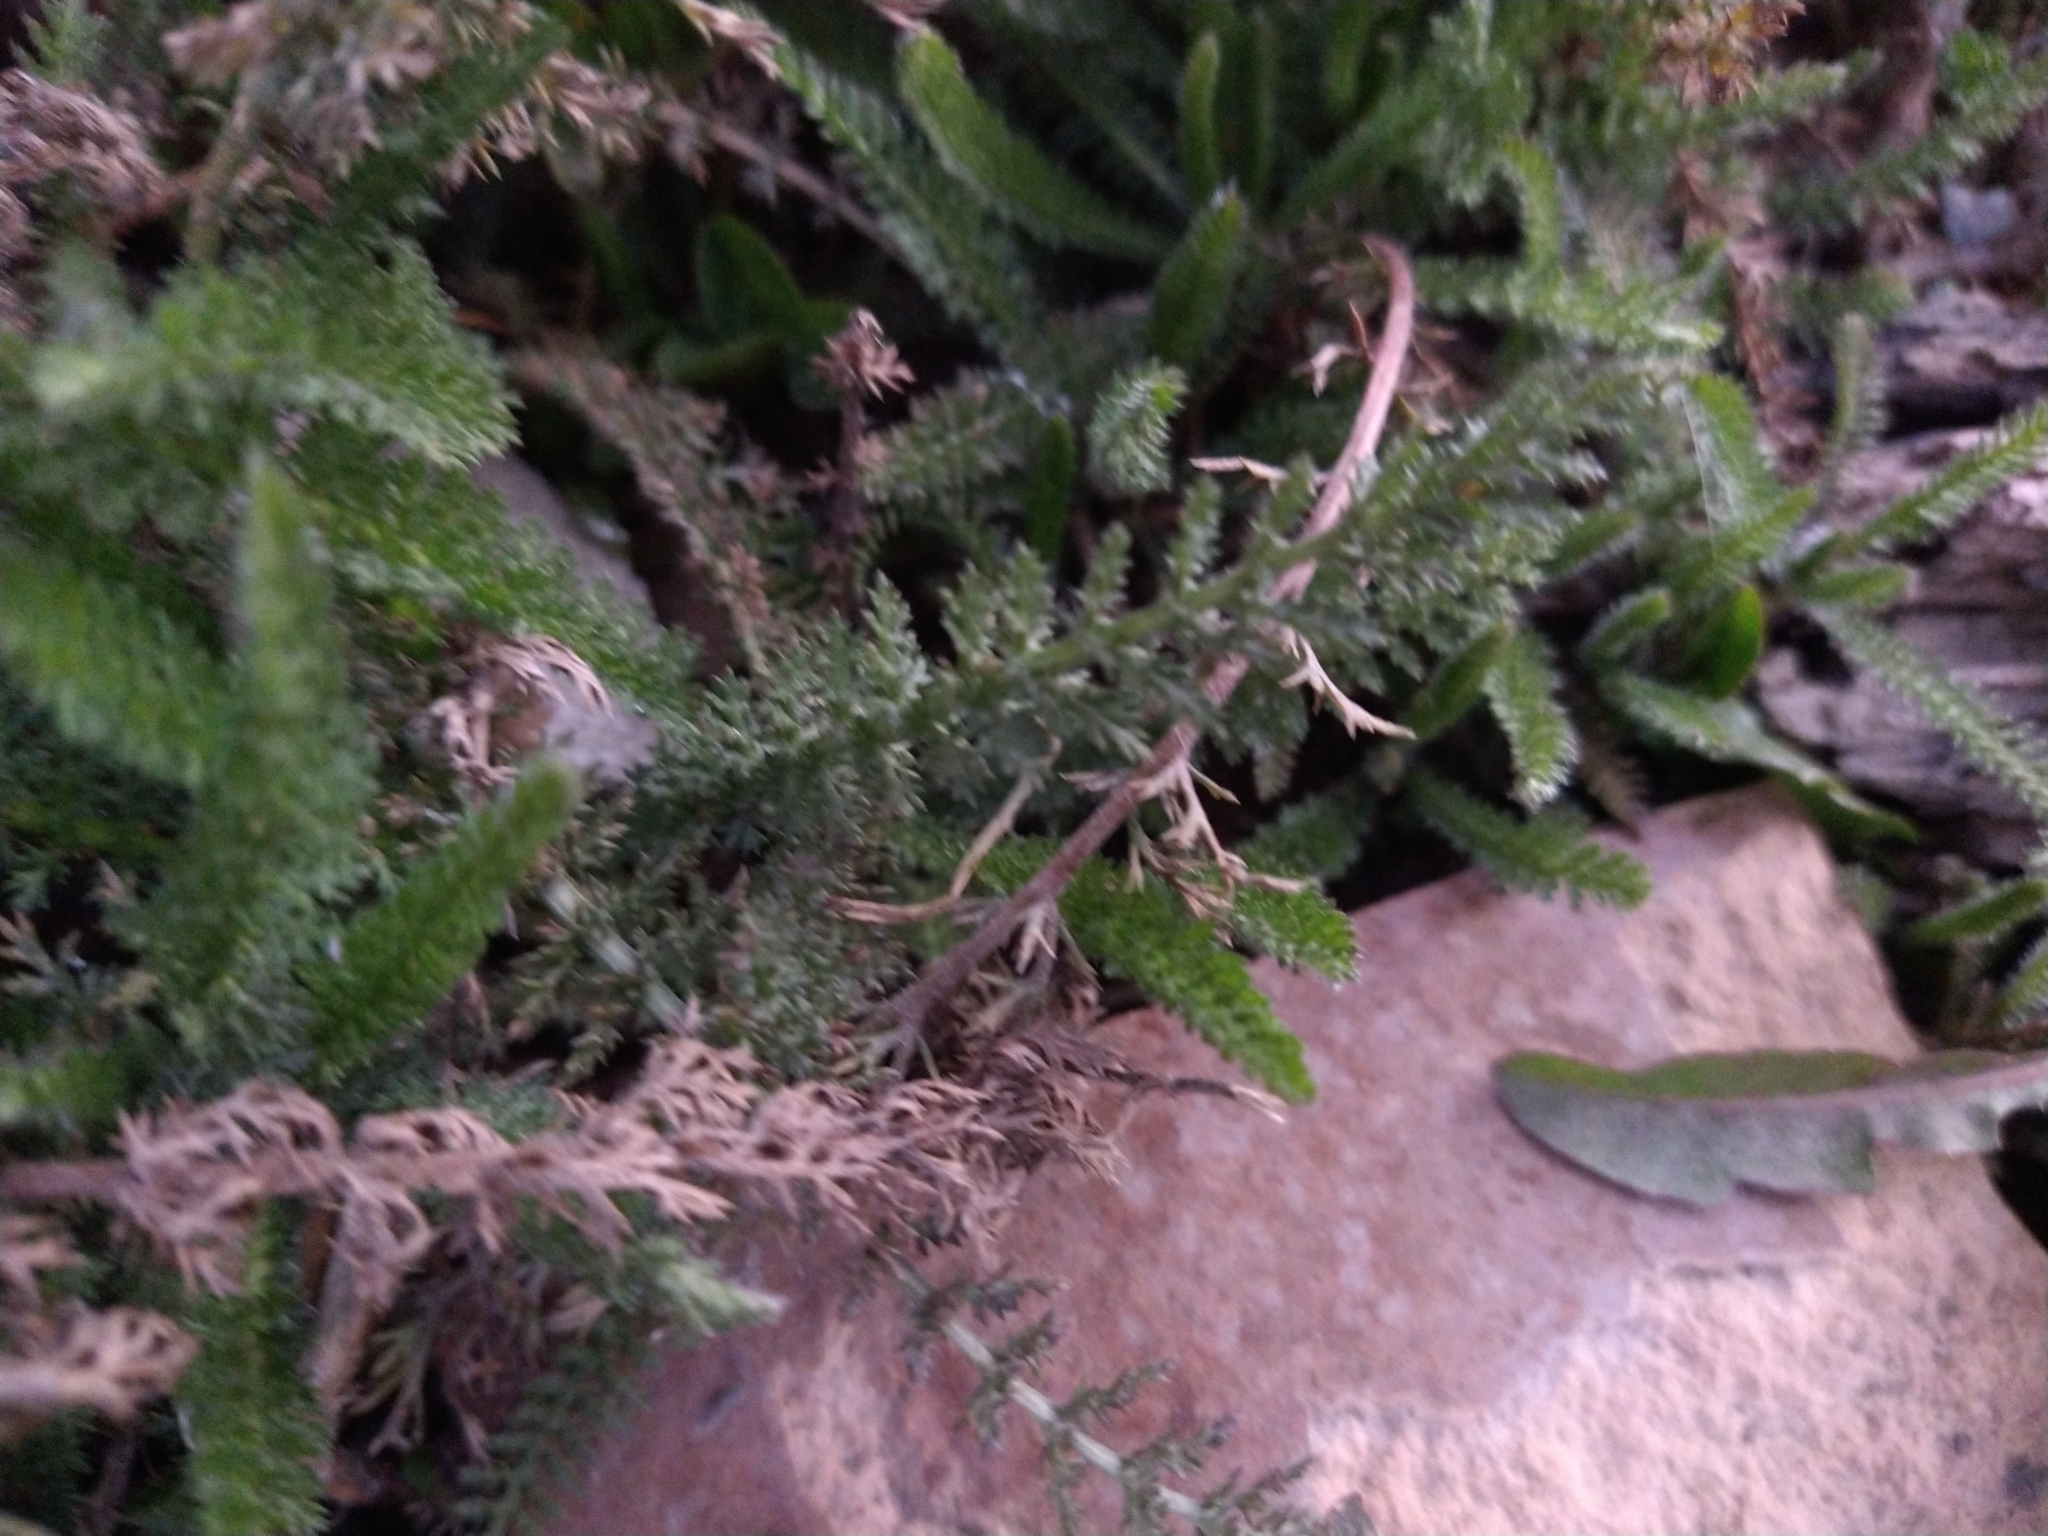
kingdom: Plantae
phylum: Tracheophyta
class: Magnoliopsida
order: Asterales
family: Asteraceae
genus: Achillea
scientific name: Achillea millefolium
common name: Yarrow
